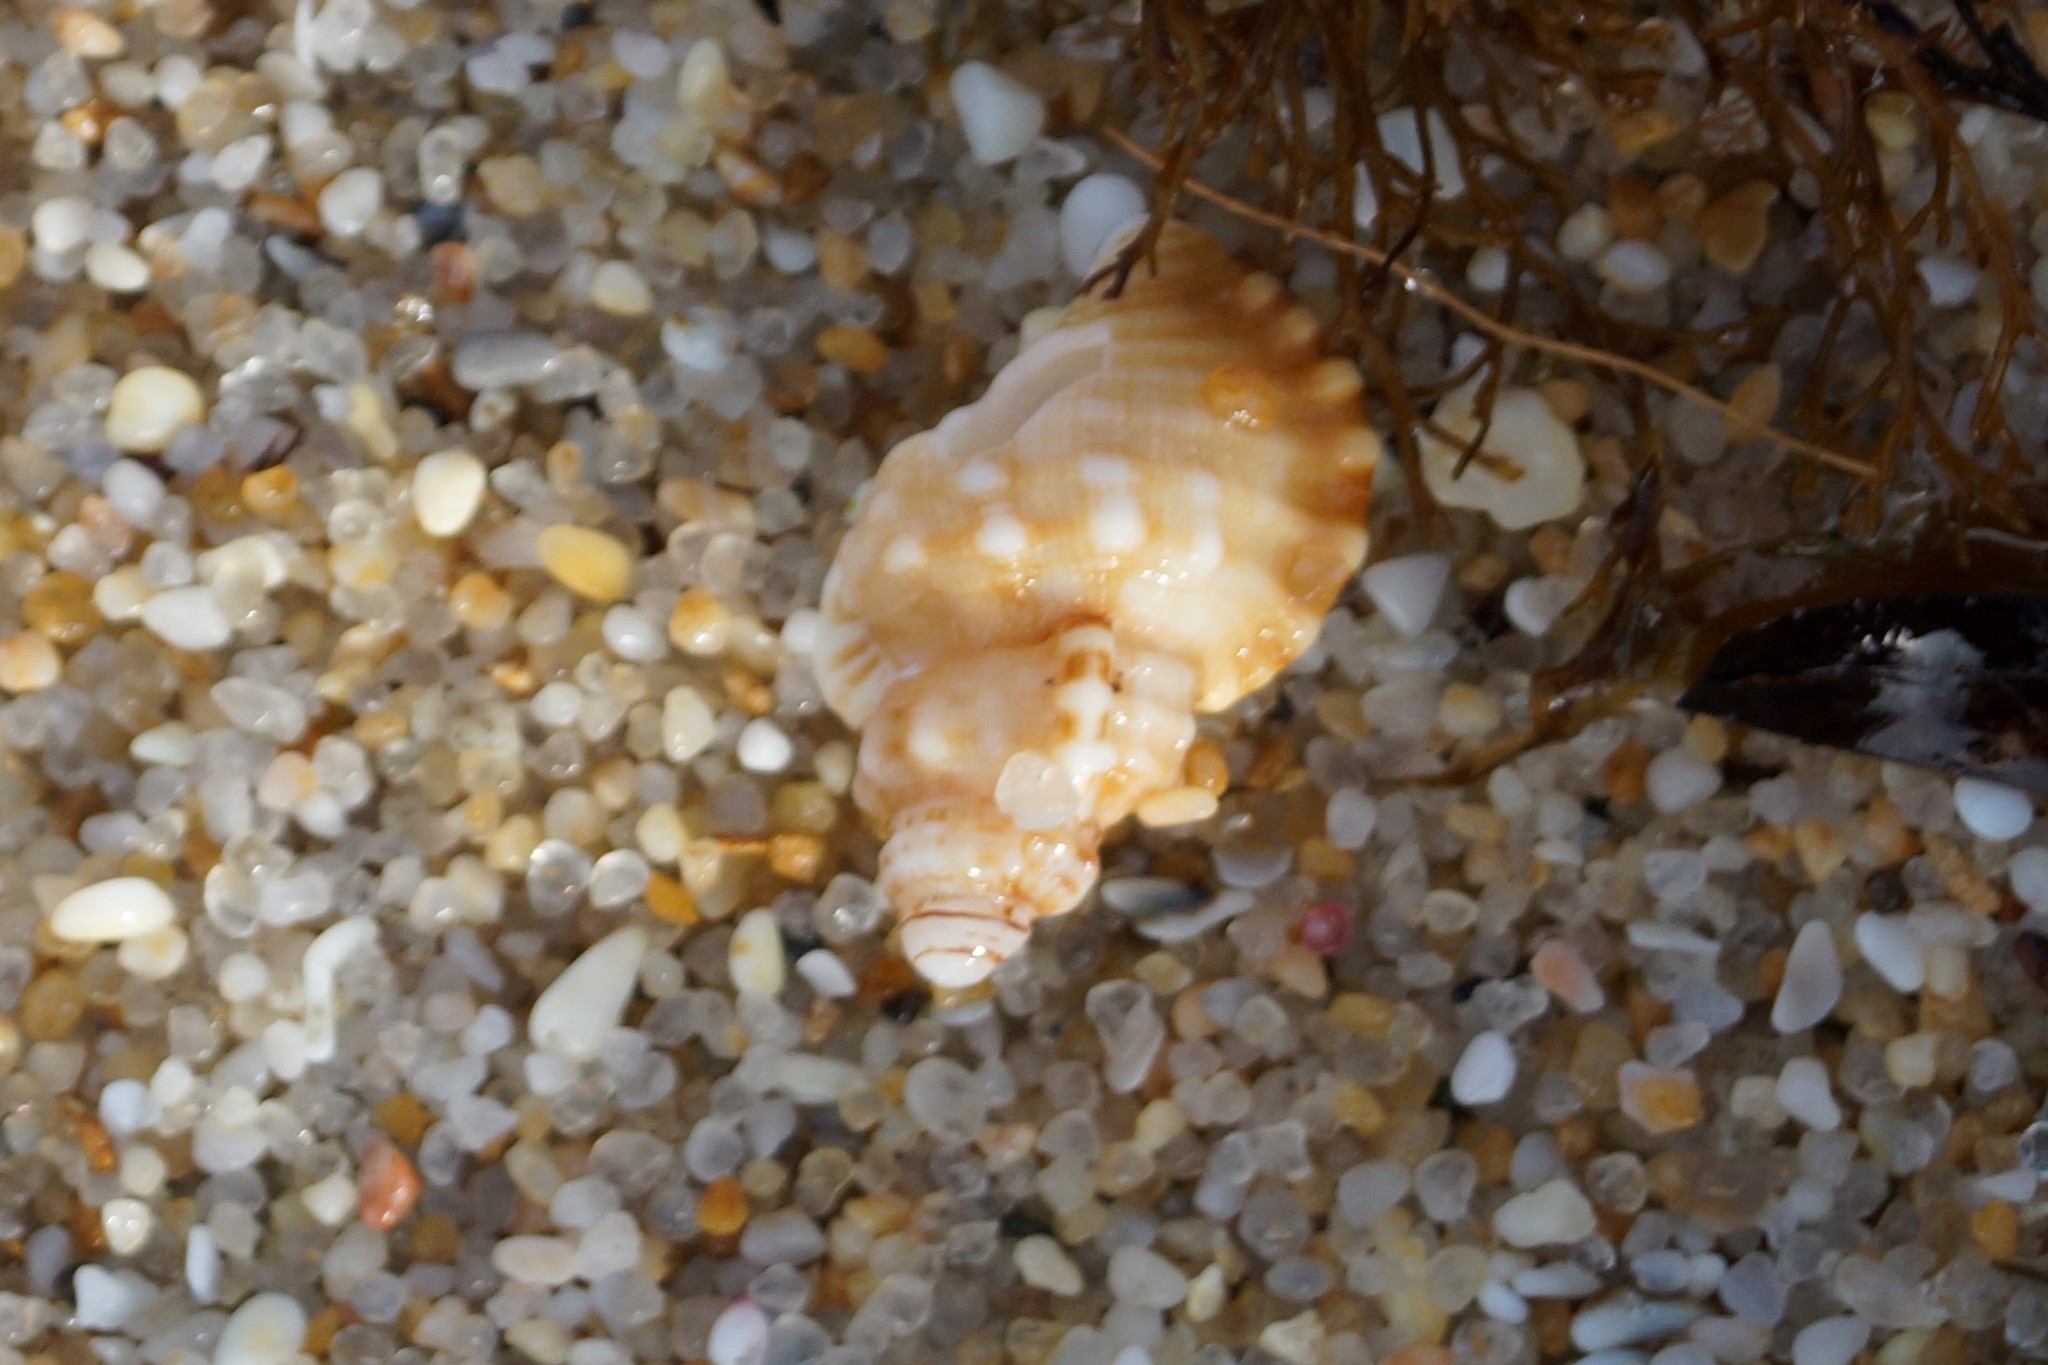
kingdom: Animalia
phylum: Mollusca
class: Gastropoda
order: Littorinimorpha
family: Cymatiidae
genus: Cabestana
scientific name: Cabestana tabulata
